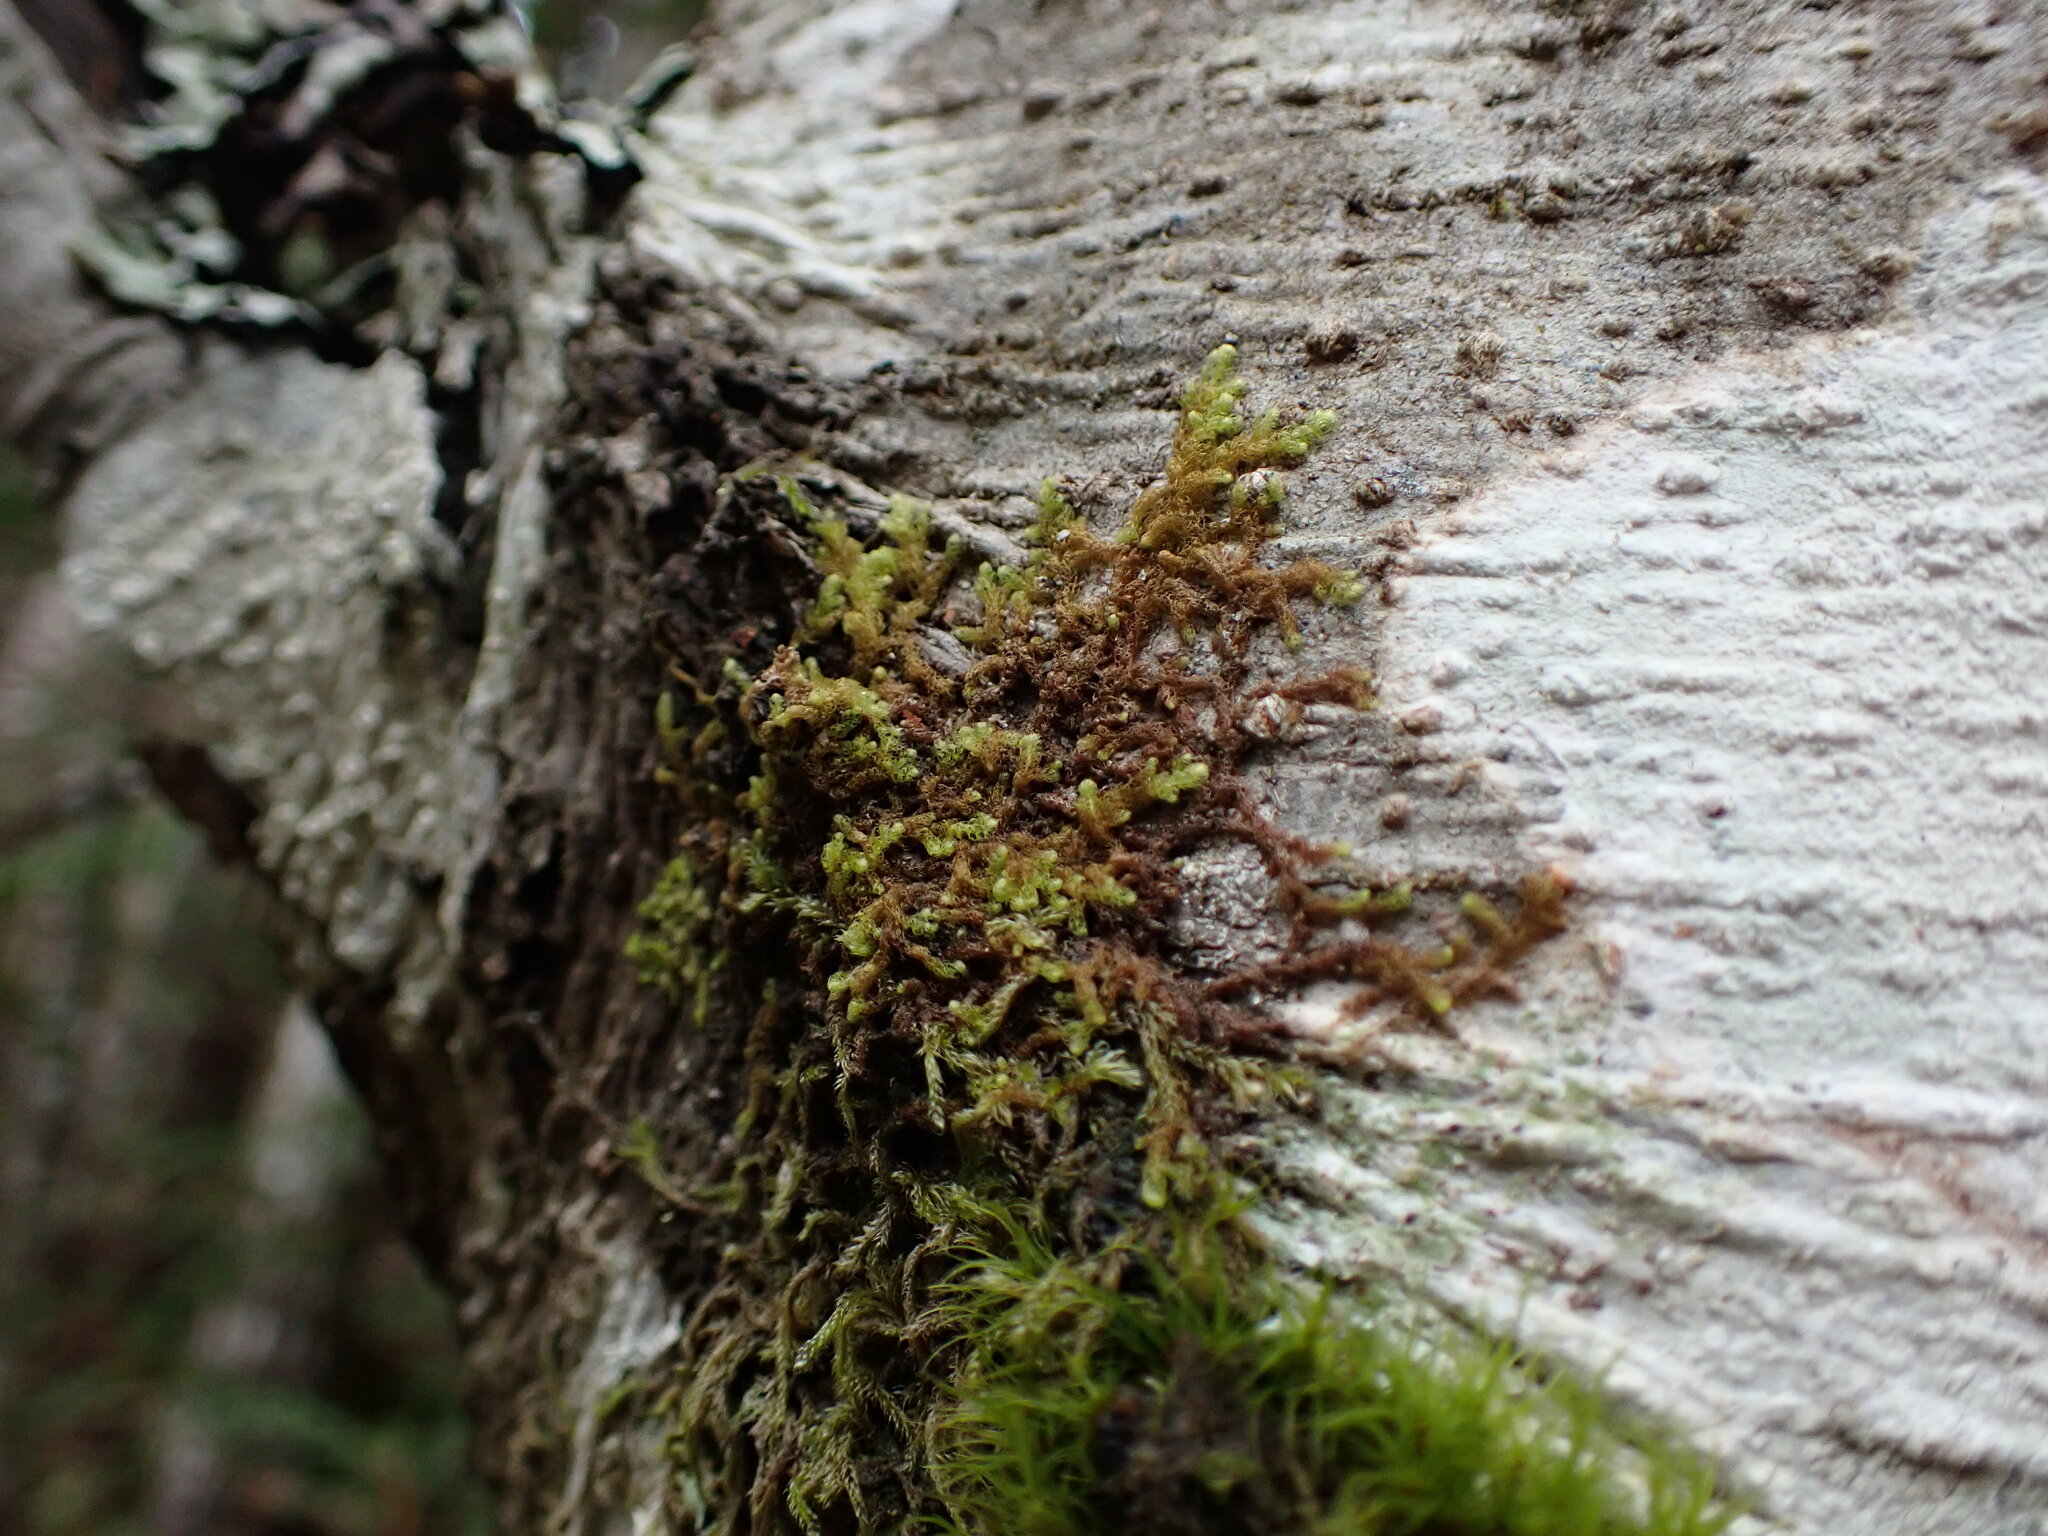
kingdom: Plantae
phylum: Marchantiophyta
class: Jungermanniopsida
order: Ptilidiales
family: Ptilidiaceae
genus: Ptilidium
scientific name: Ptilidium californicum
